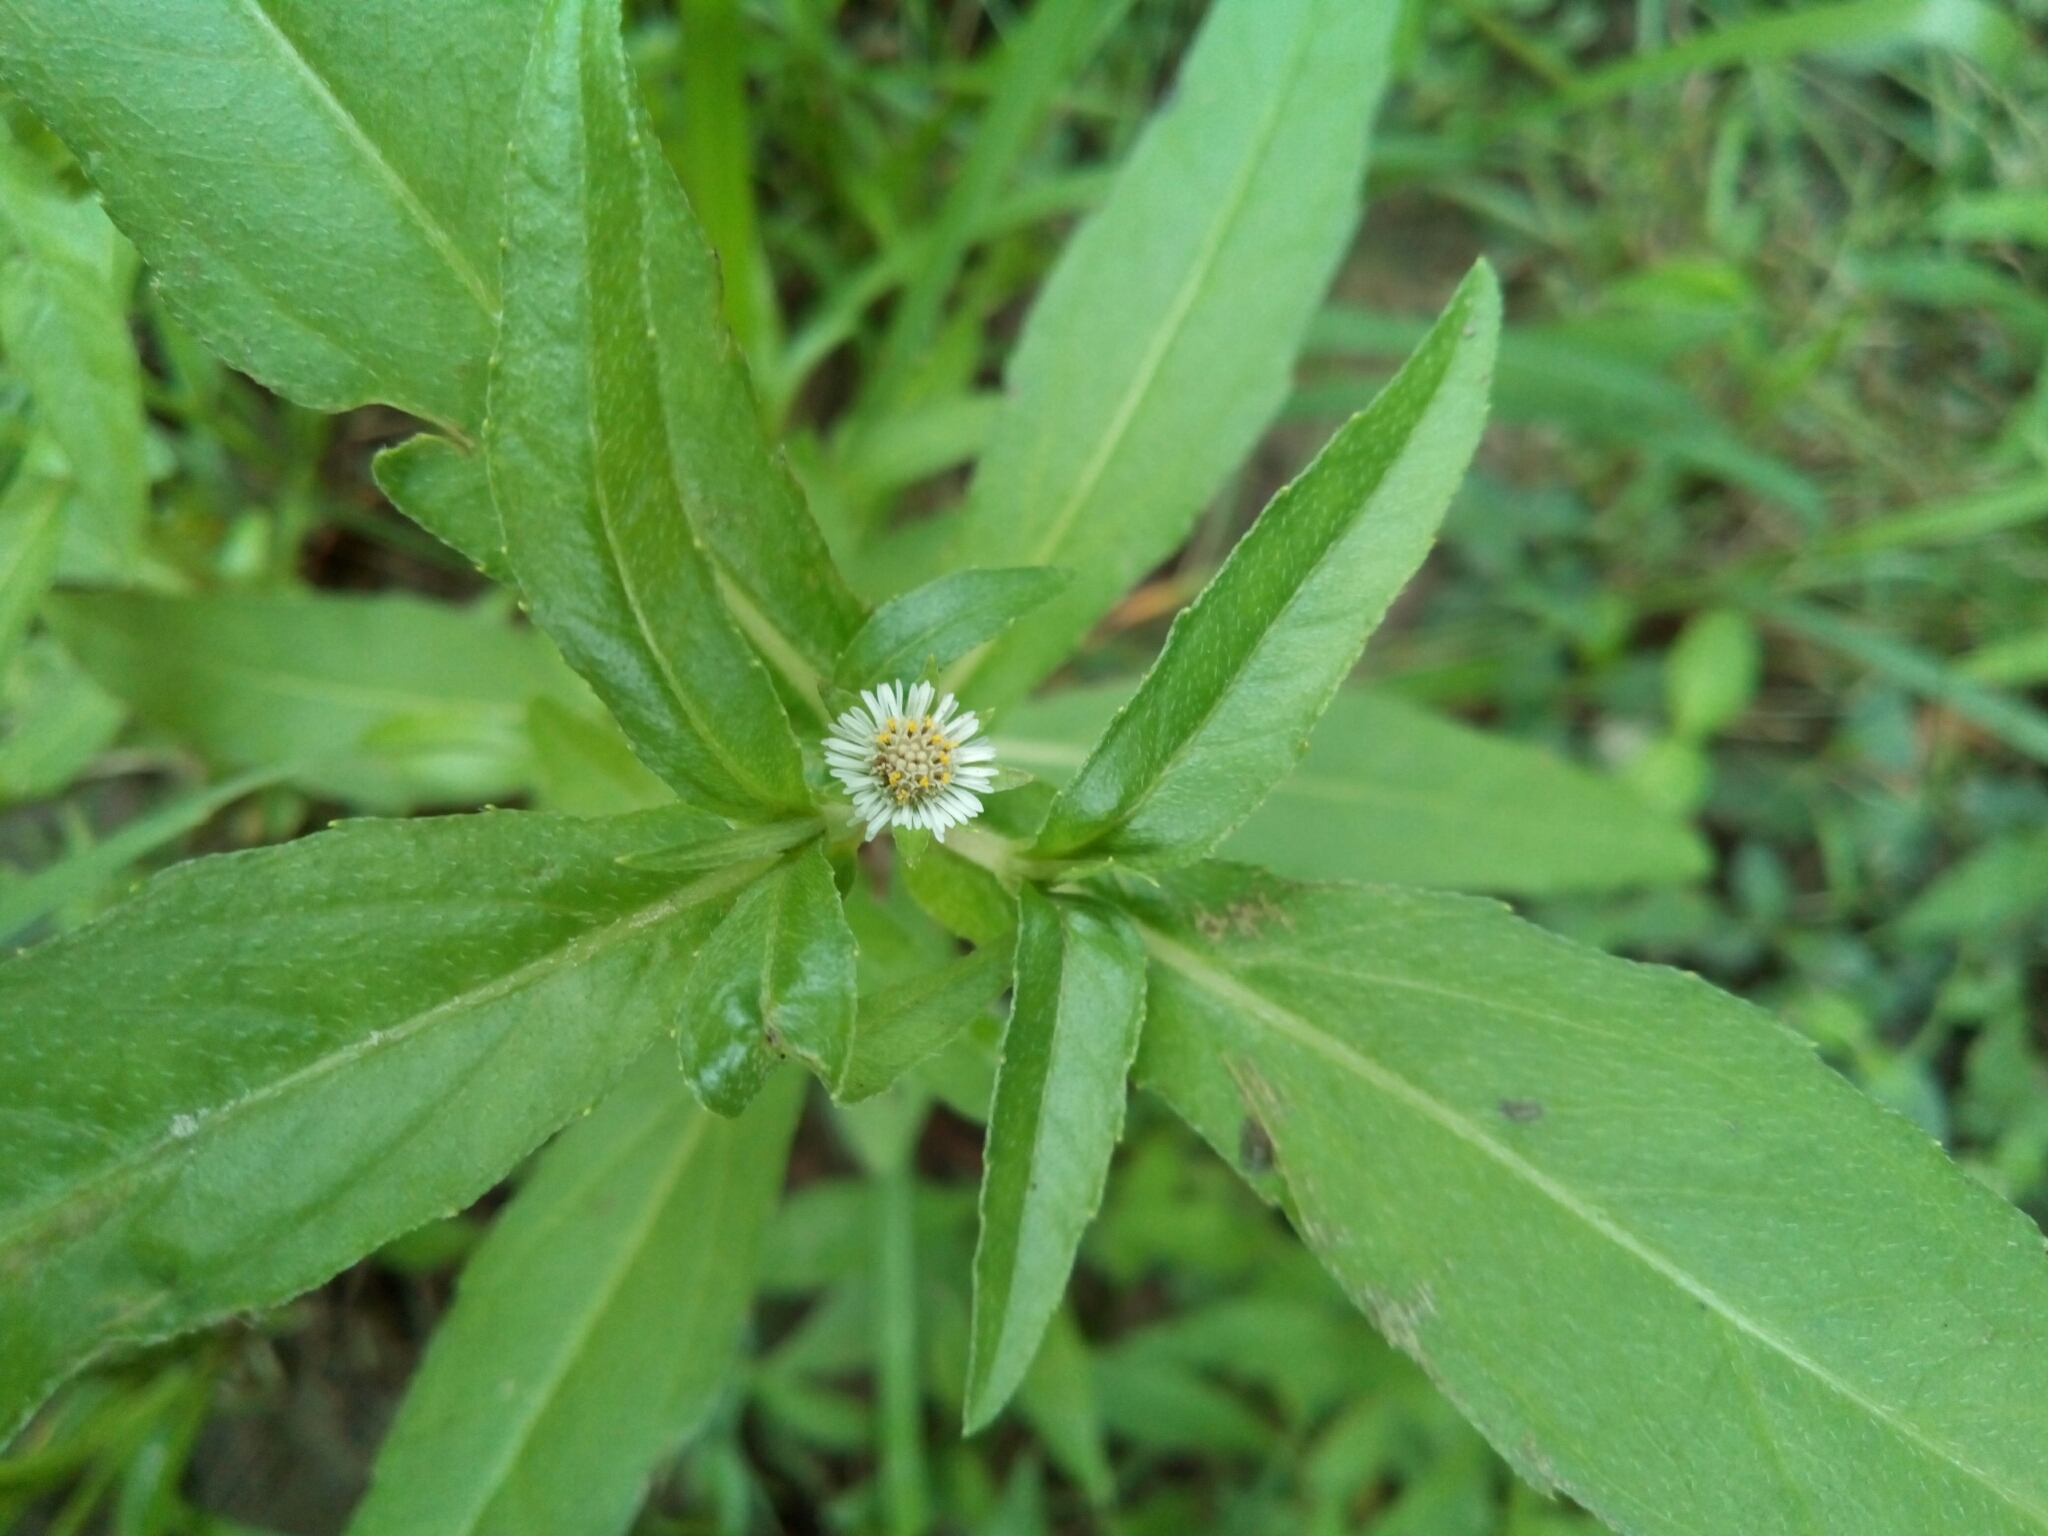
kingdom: Plantae
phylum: Tracheophyta
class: Magnoliopsida
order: Asterales
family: Asteraceae
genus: Eclipta
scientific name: Eclipta prostrata
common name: False daisy
